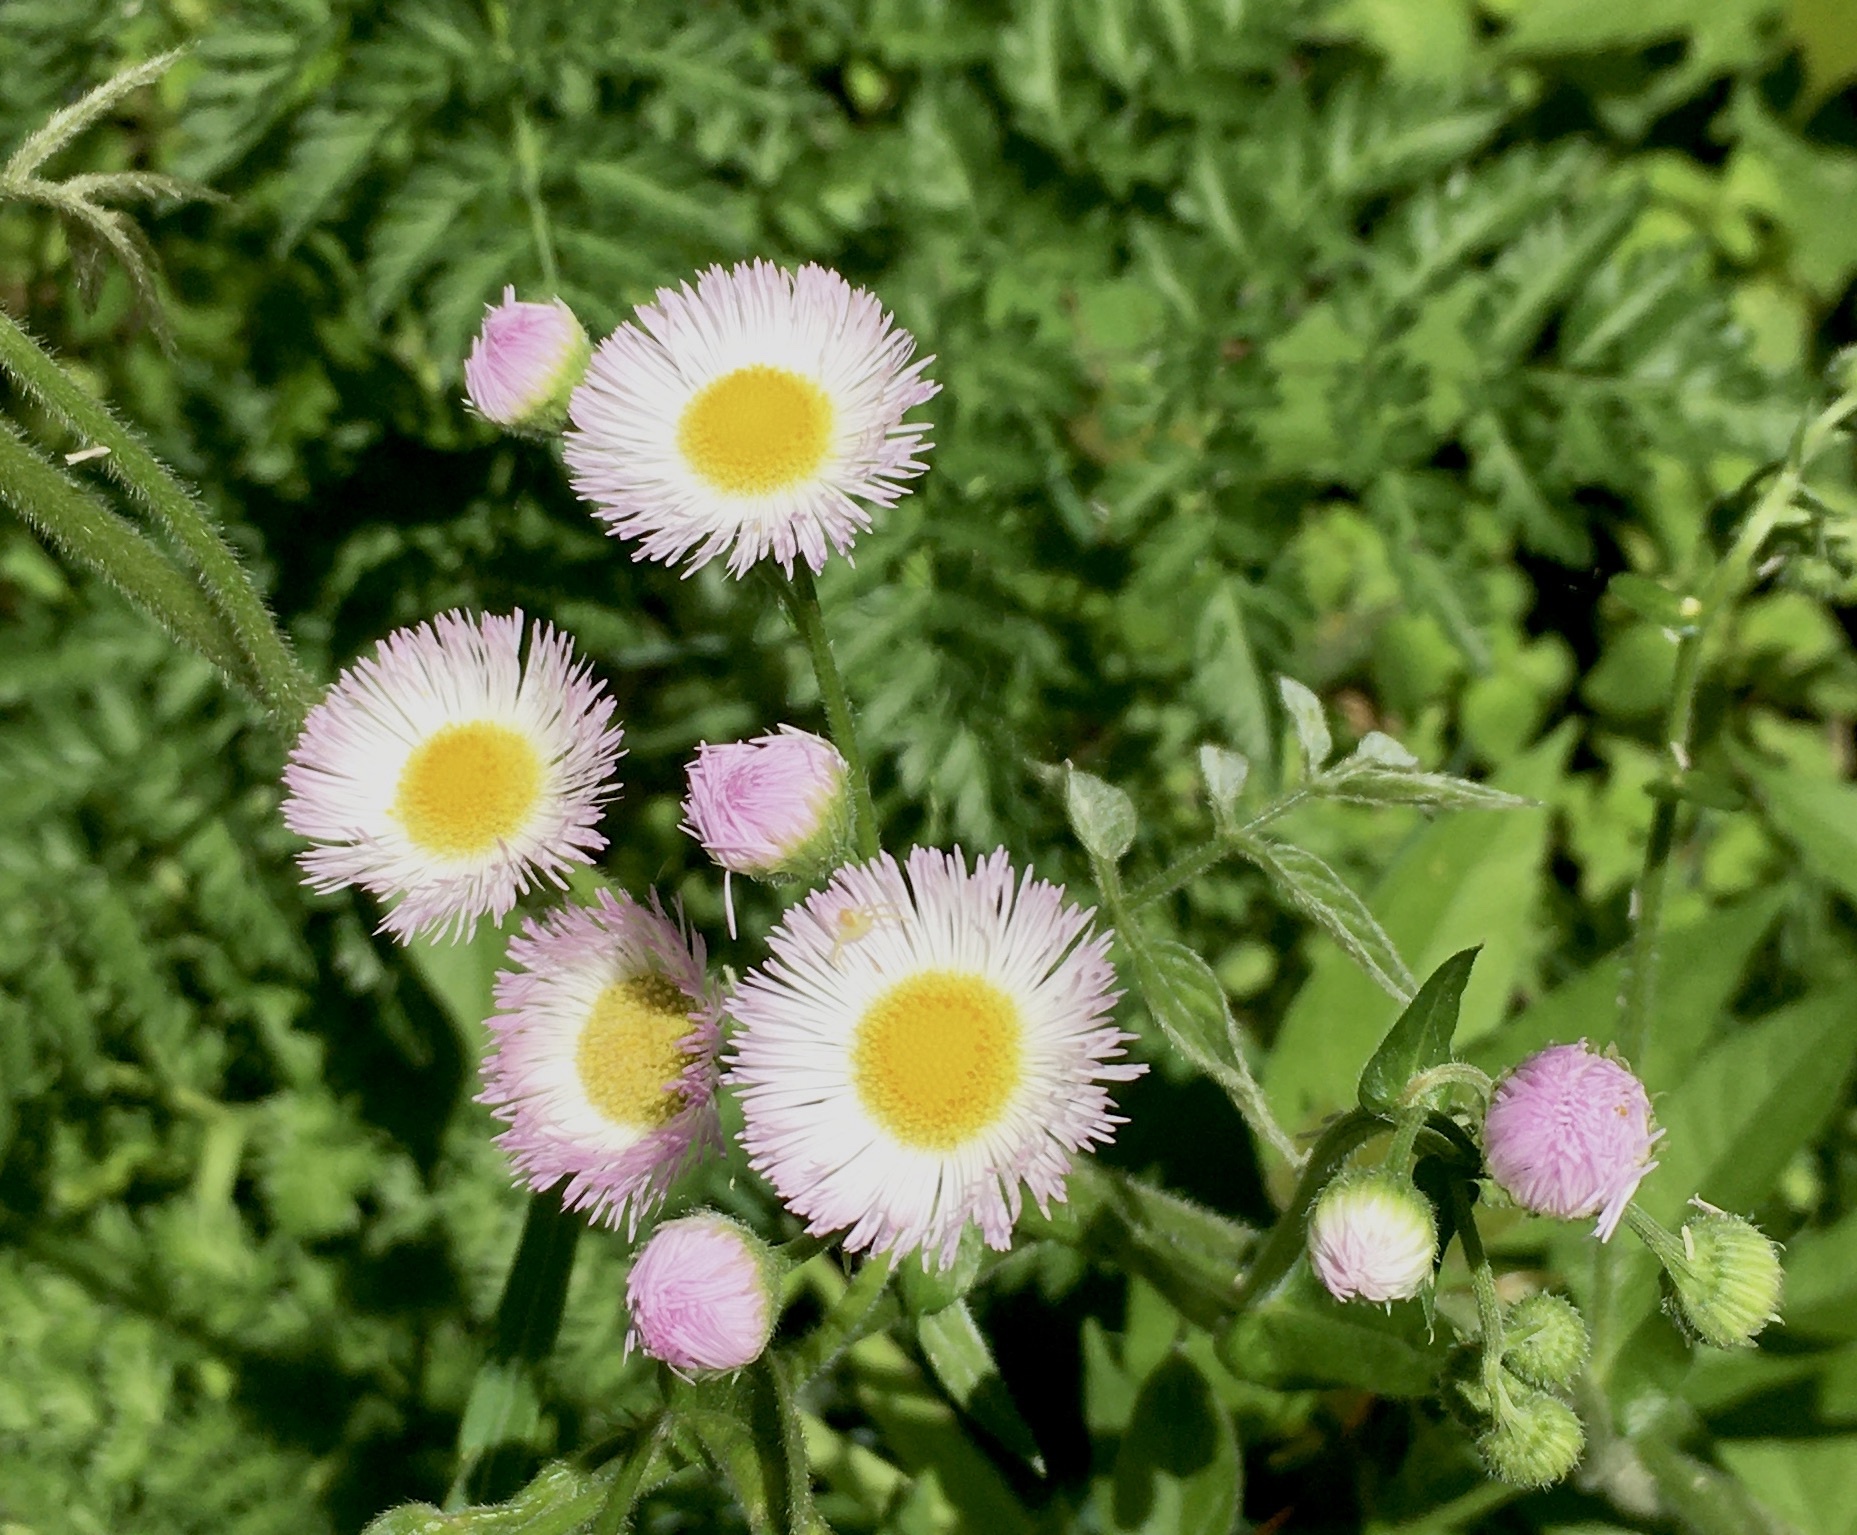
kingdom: Plantae
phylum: Tracheophyta
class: Magnoliopsida
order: Asterales
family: Asteraceae
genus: Erigeron
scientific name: Erigeron philadelphicus
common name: Robin's-plantain
